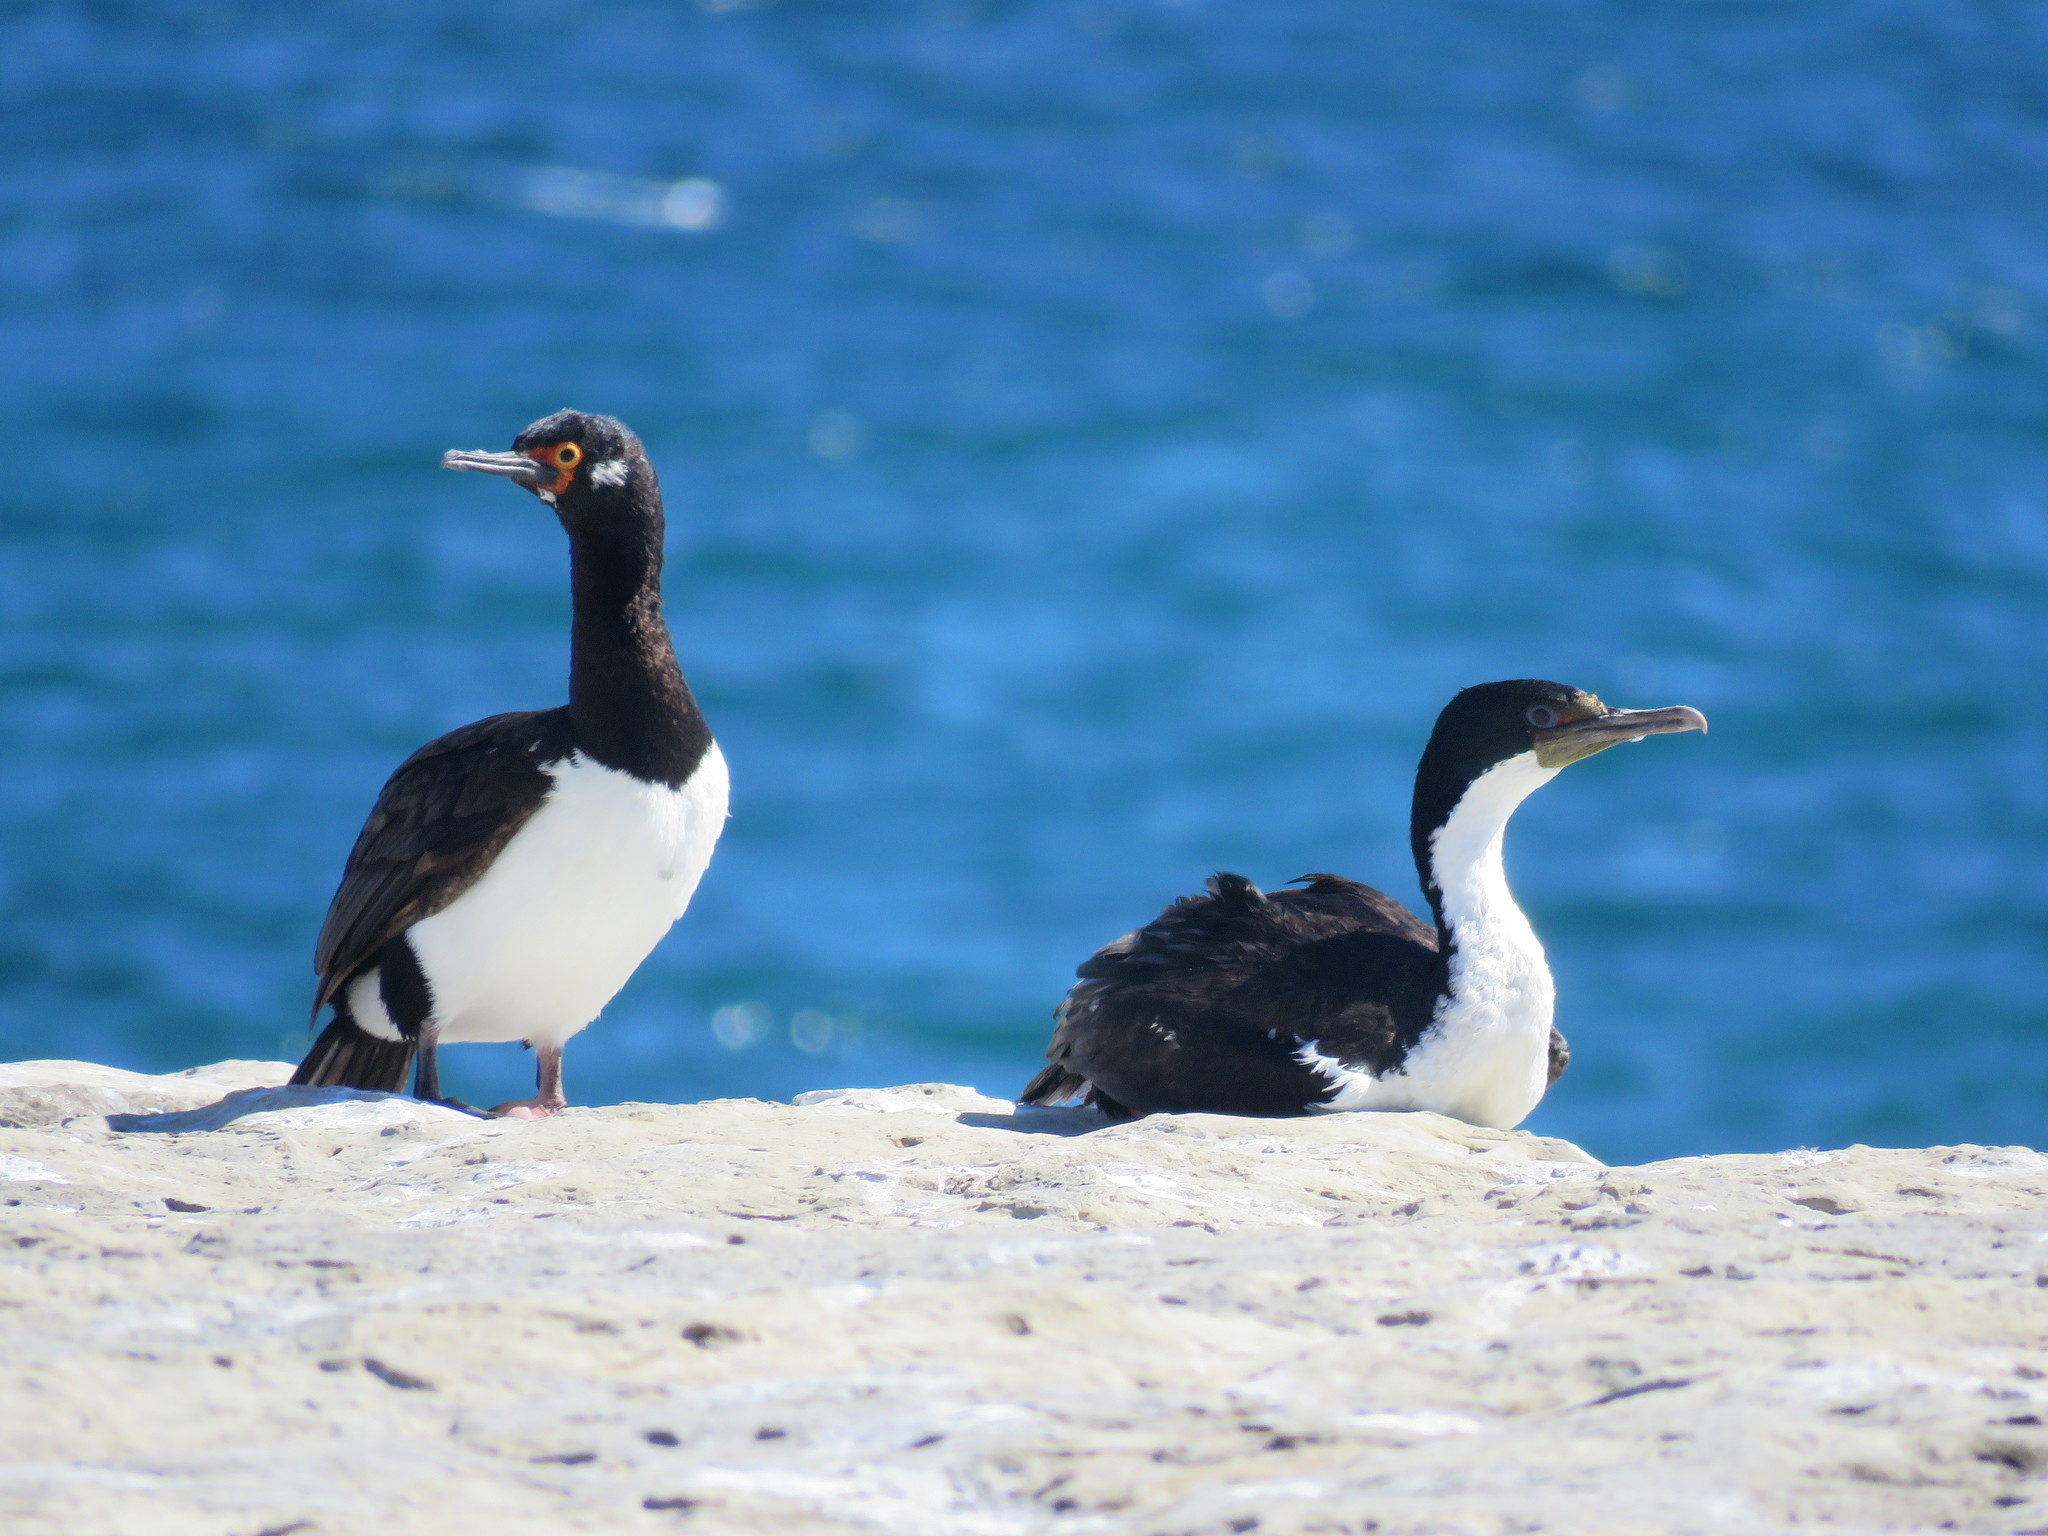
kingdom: Animalia
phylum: Chordata
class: Aves
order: Suliformes
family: Phalacrocoracidae
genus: Leucocarbo
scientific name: Leucocarbo atriceps
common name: Imperial shag
